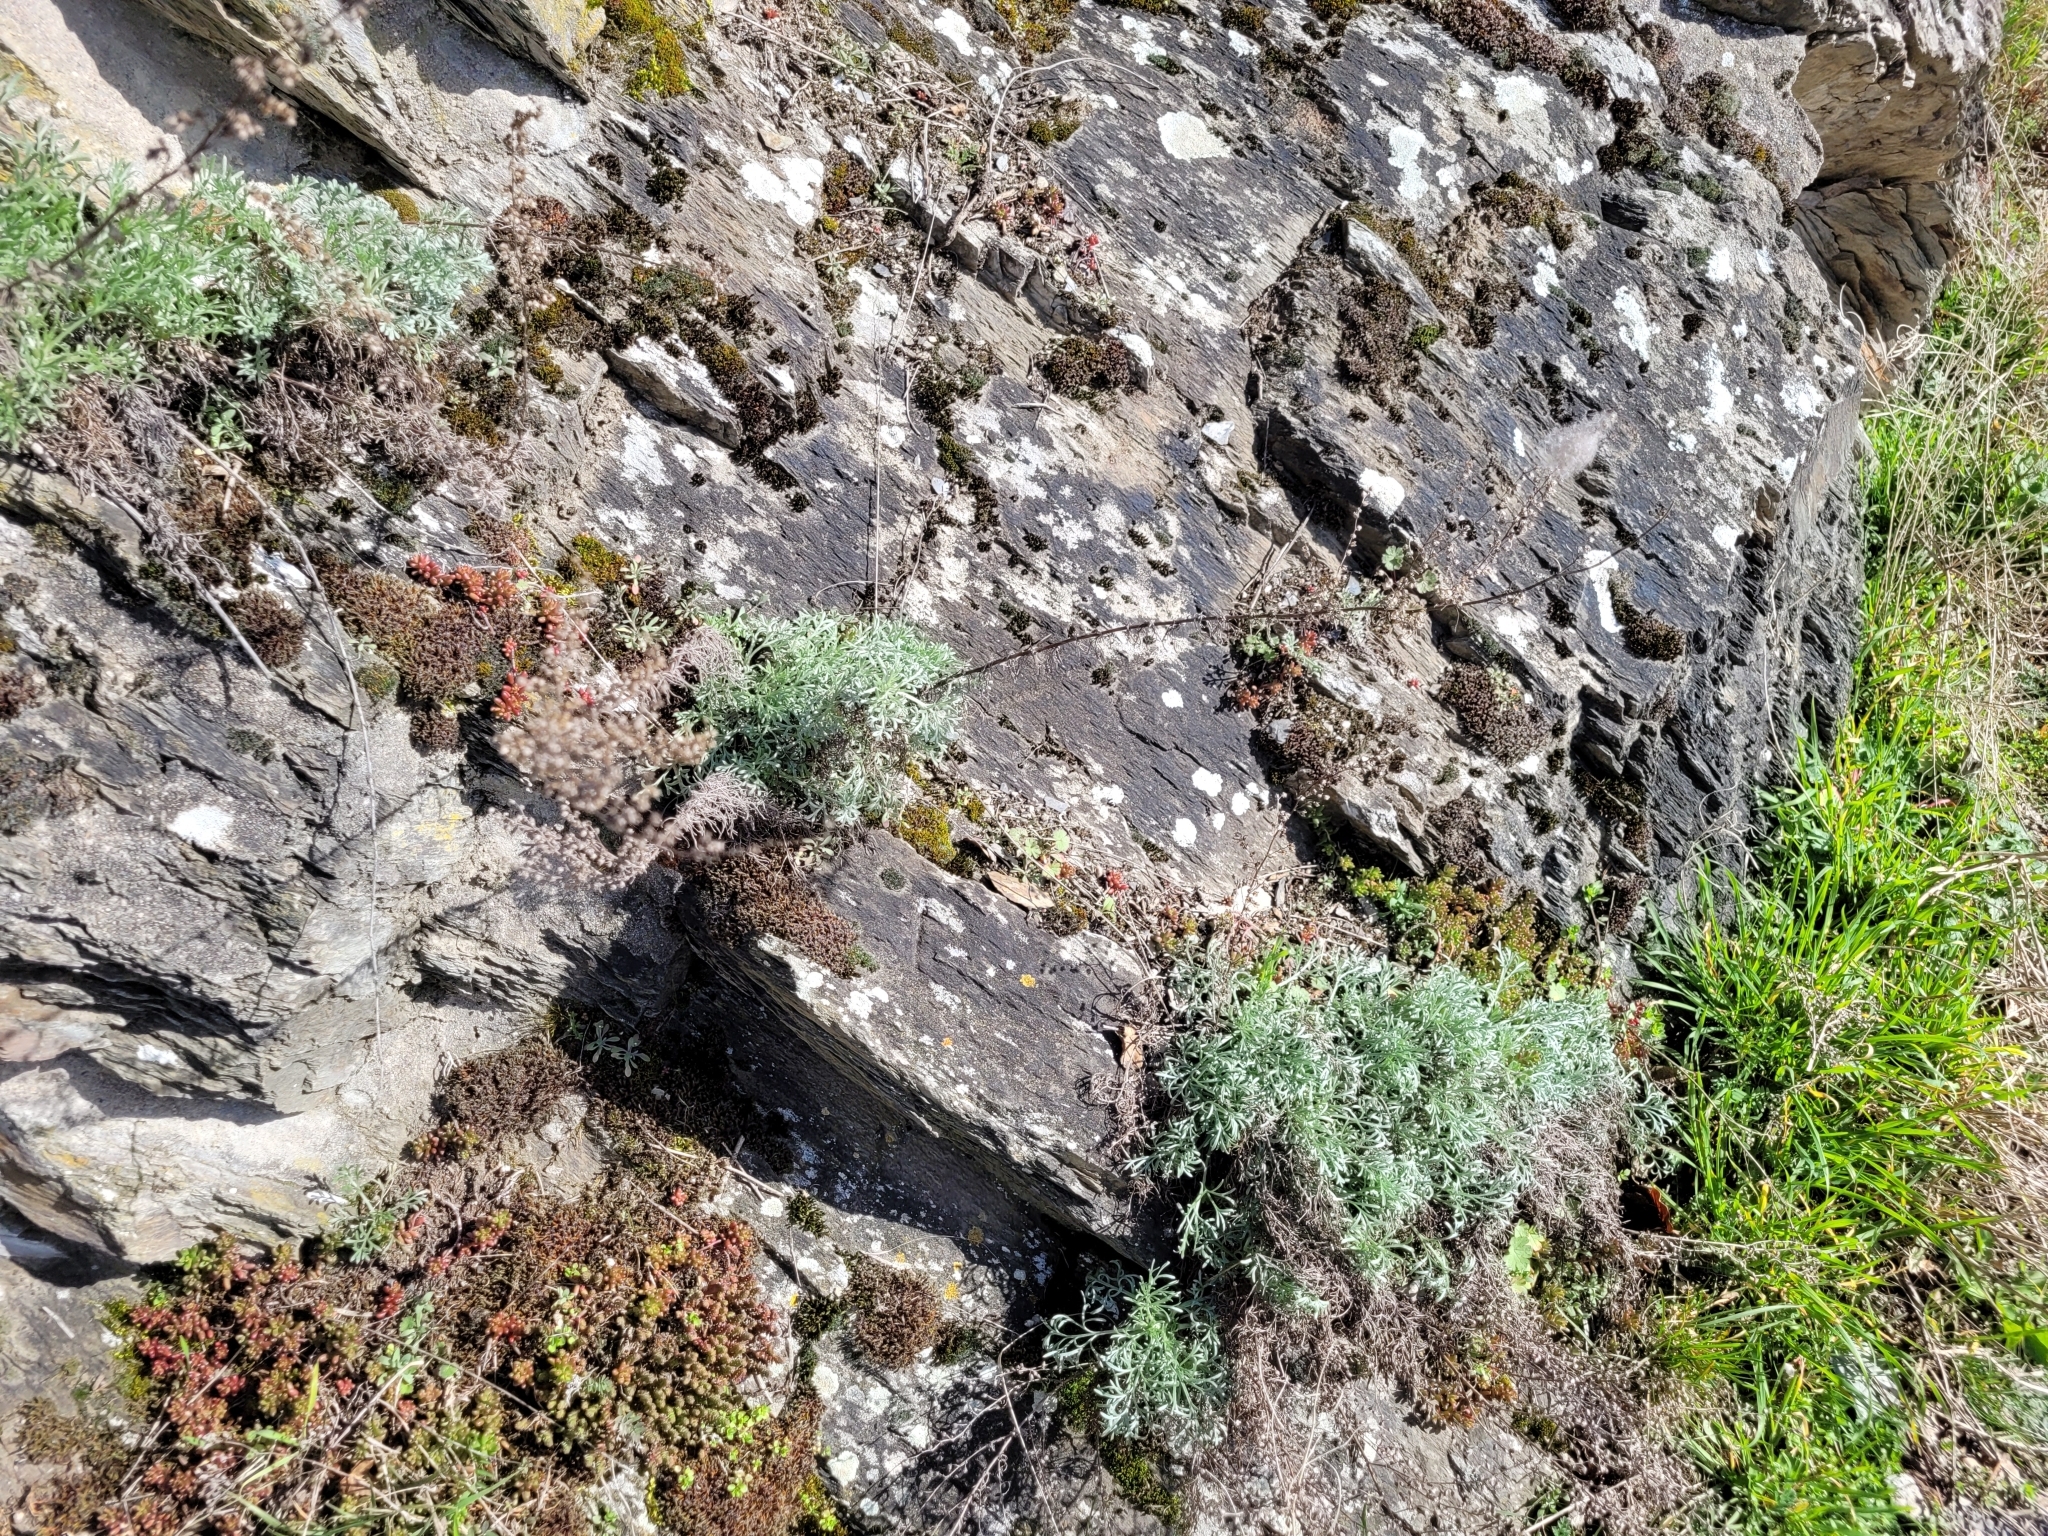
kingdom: Plantae
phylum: Tracheophyta
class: Magnoliopsida
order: Asterales
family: Asteraceae
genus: Artemisia
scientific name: Artemisia campestris
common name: Field wormwood
